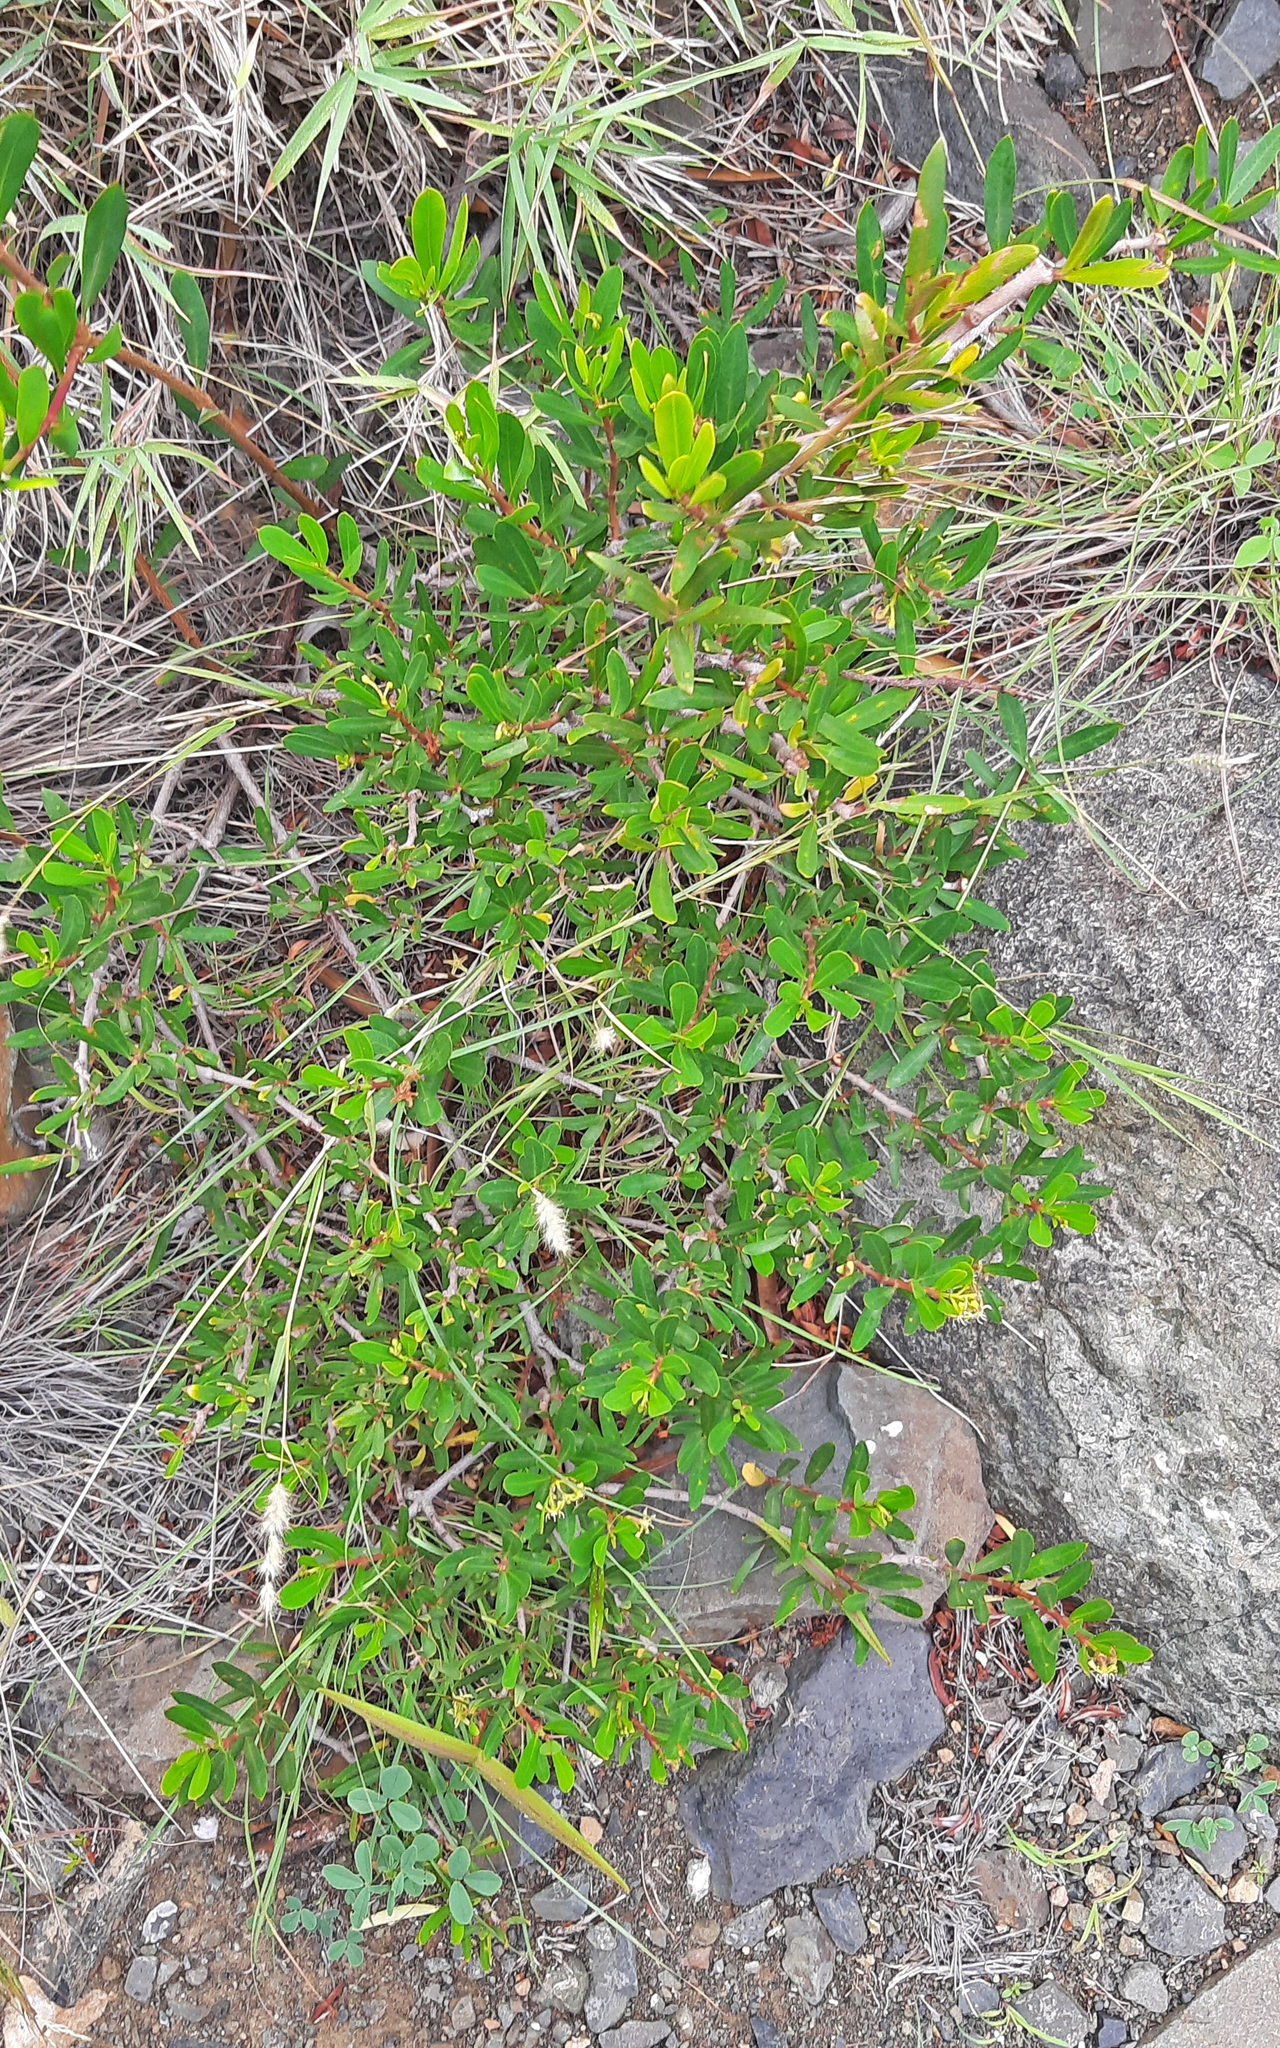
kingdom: Plantae
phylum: Tracheophyta
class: Magnoliopsida
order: Gentianales
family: Apocynaceae
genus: Periploca
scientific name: Periploca laevigata
